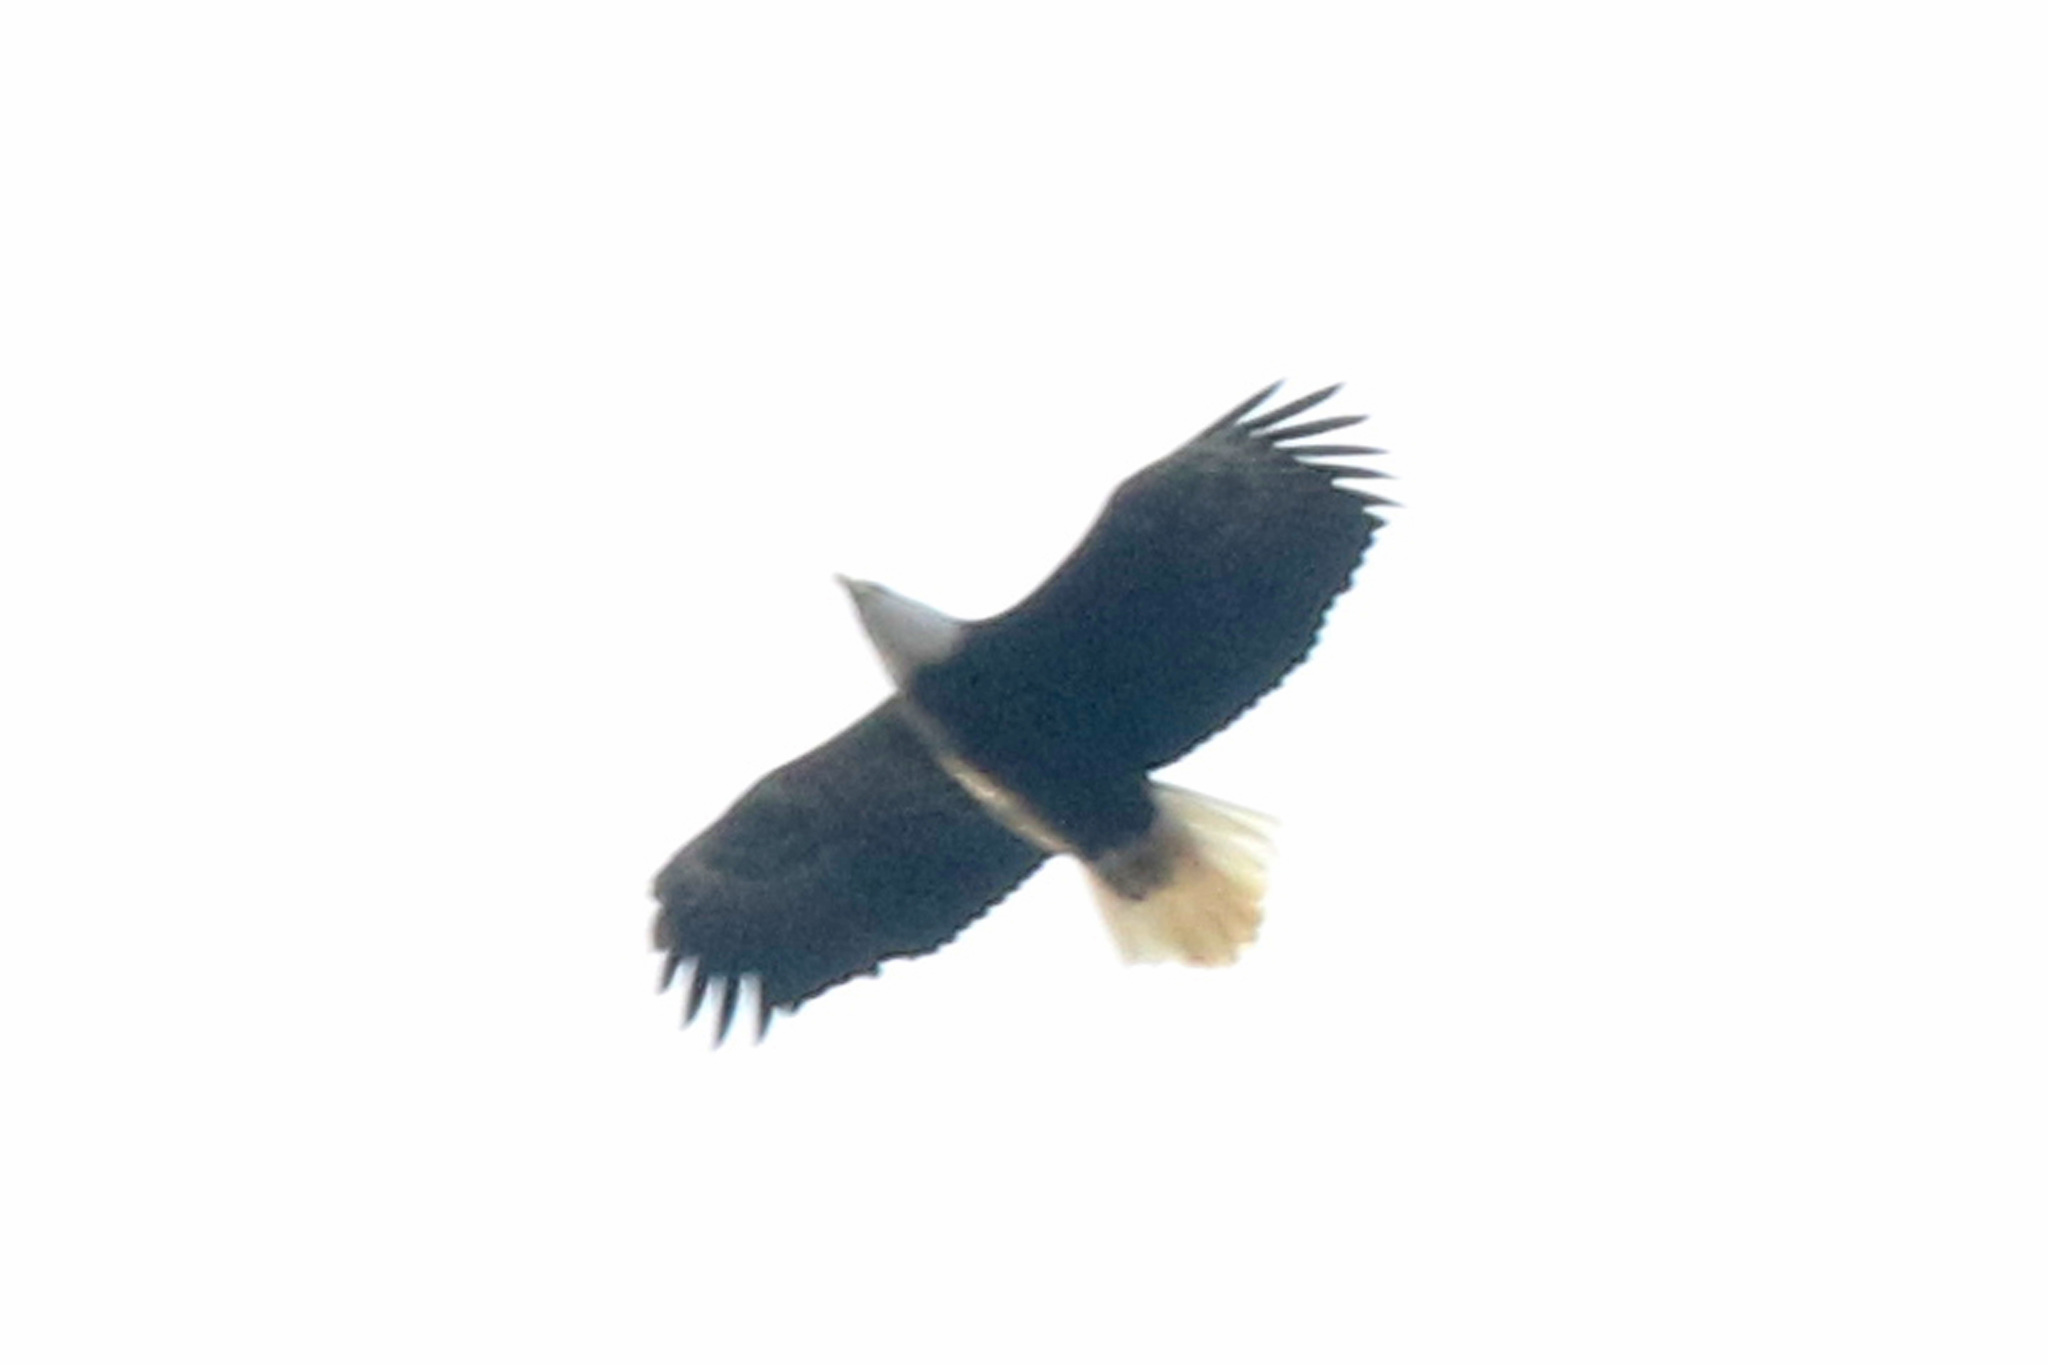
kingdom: Animalia
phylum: Chordata
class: Aves
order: Accipitriformes
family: Accipitridae
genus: Haliaeetus
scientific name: Haliaeetus leucocephalus
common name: Bald eagle
